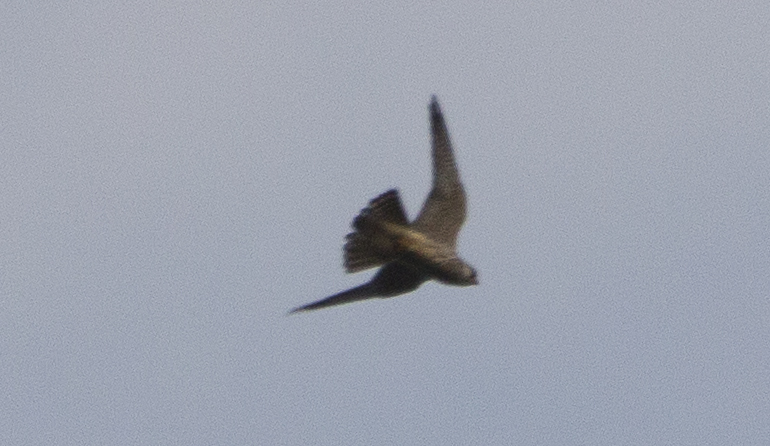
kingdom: Animalia
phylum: Chordata
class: Aves
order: Falconiformes
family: Falconidae
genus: Falco
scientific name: Falco subbuteo
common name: Eurasian hobby
